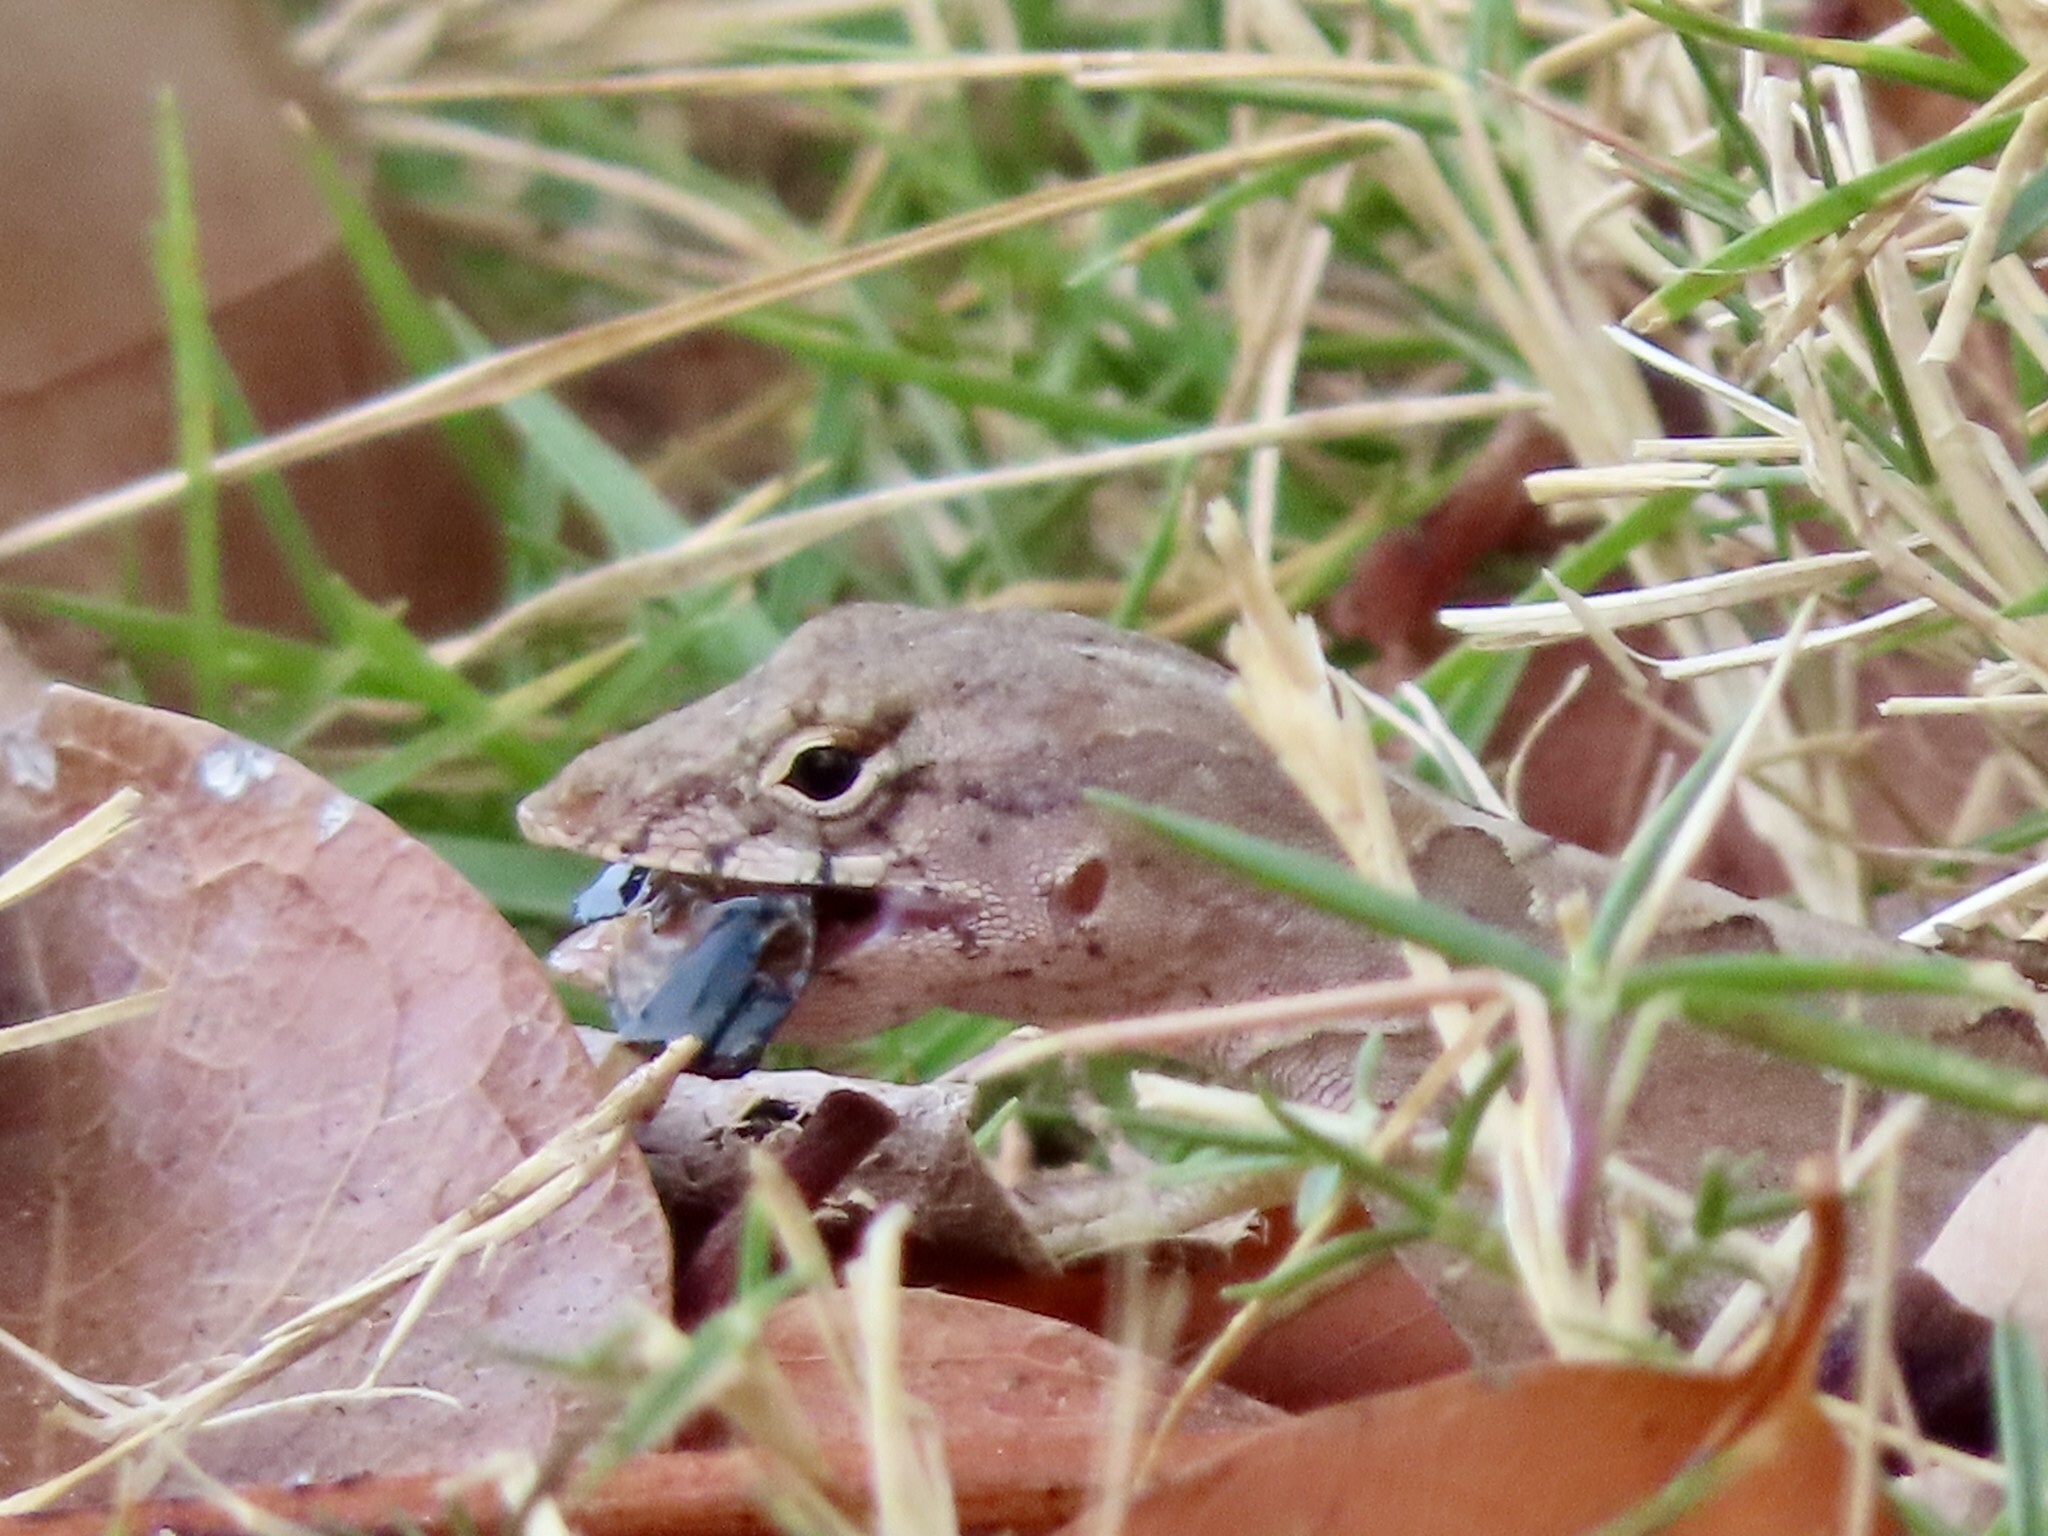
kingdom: Animalia
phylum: Chordata
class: Squamata
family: Dactyloidae
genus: Anolis
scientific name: Anolis sagrei
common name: Brown anole
